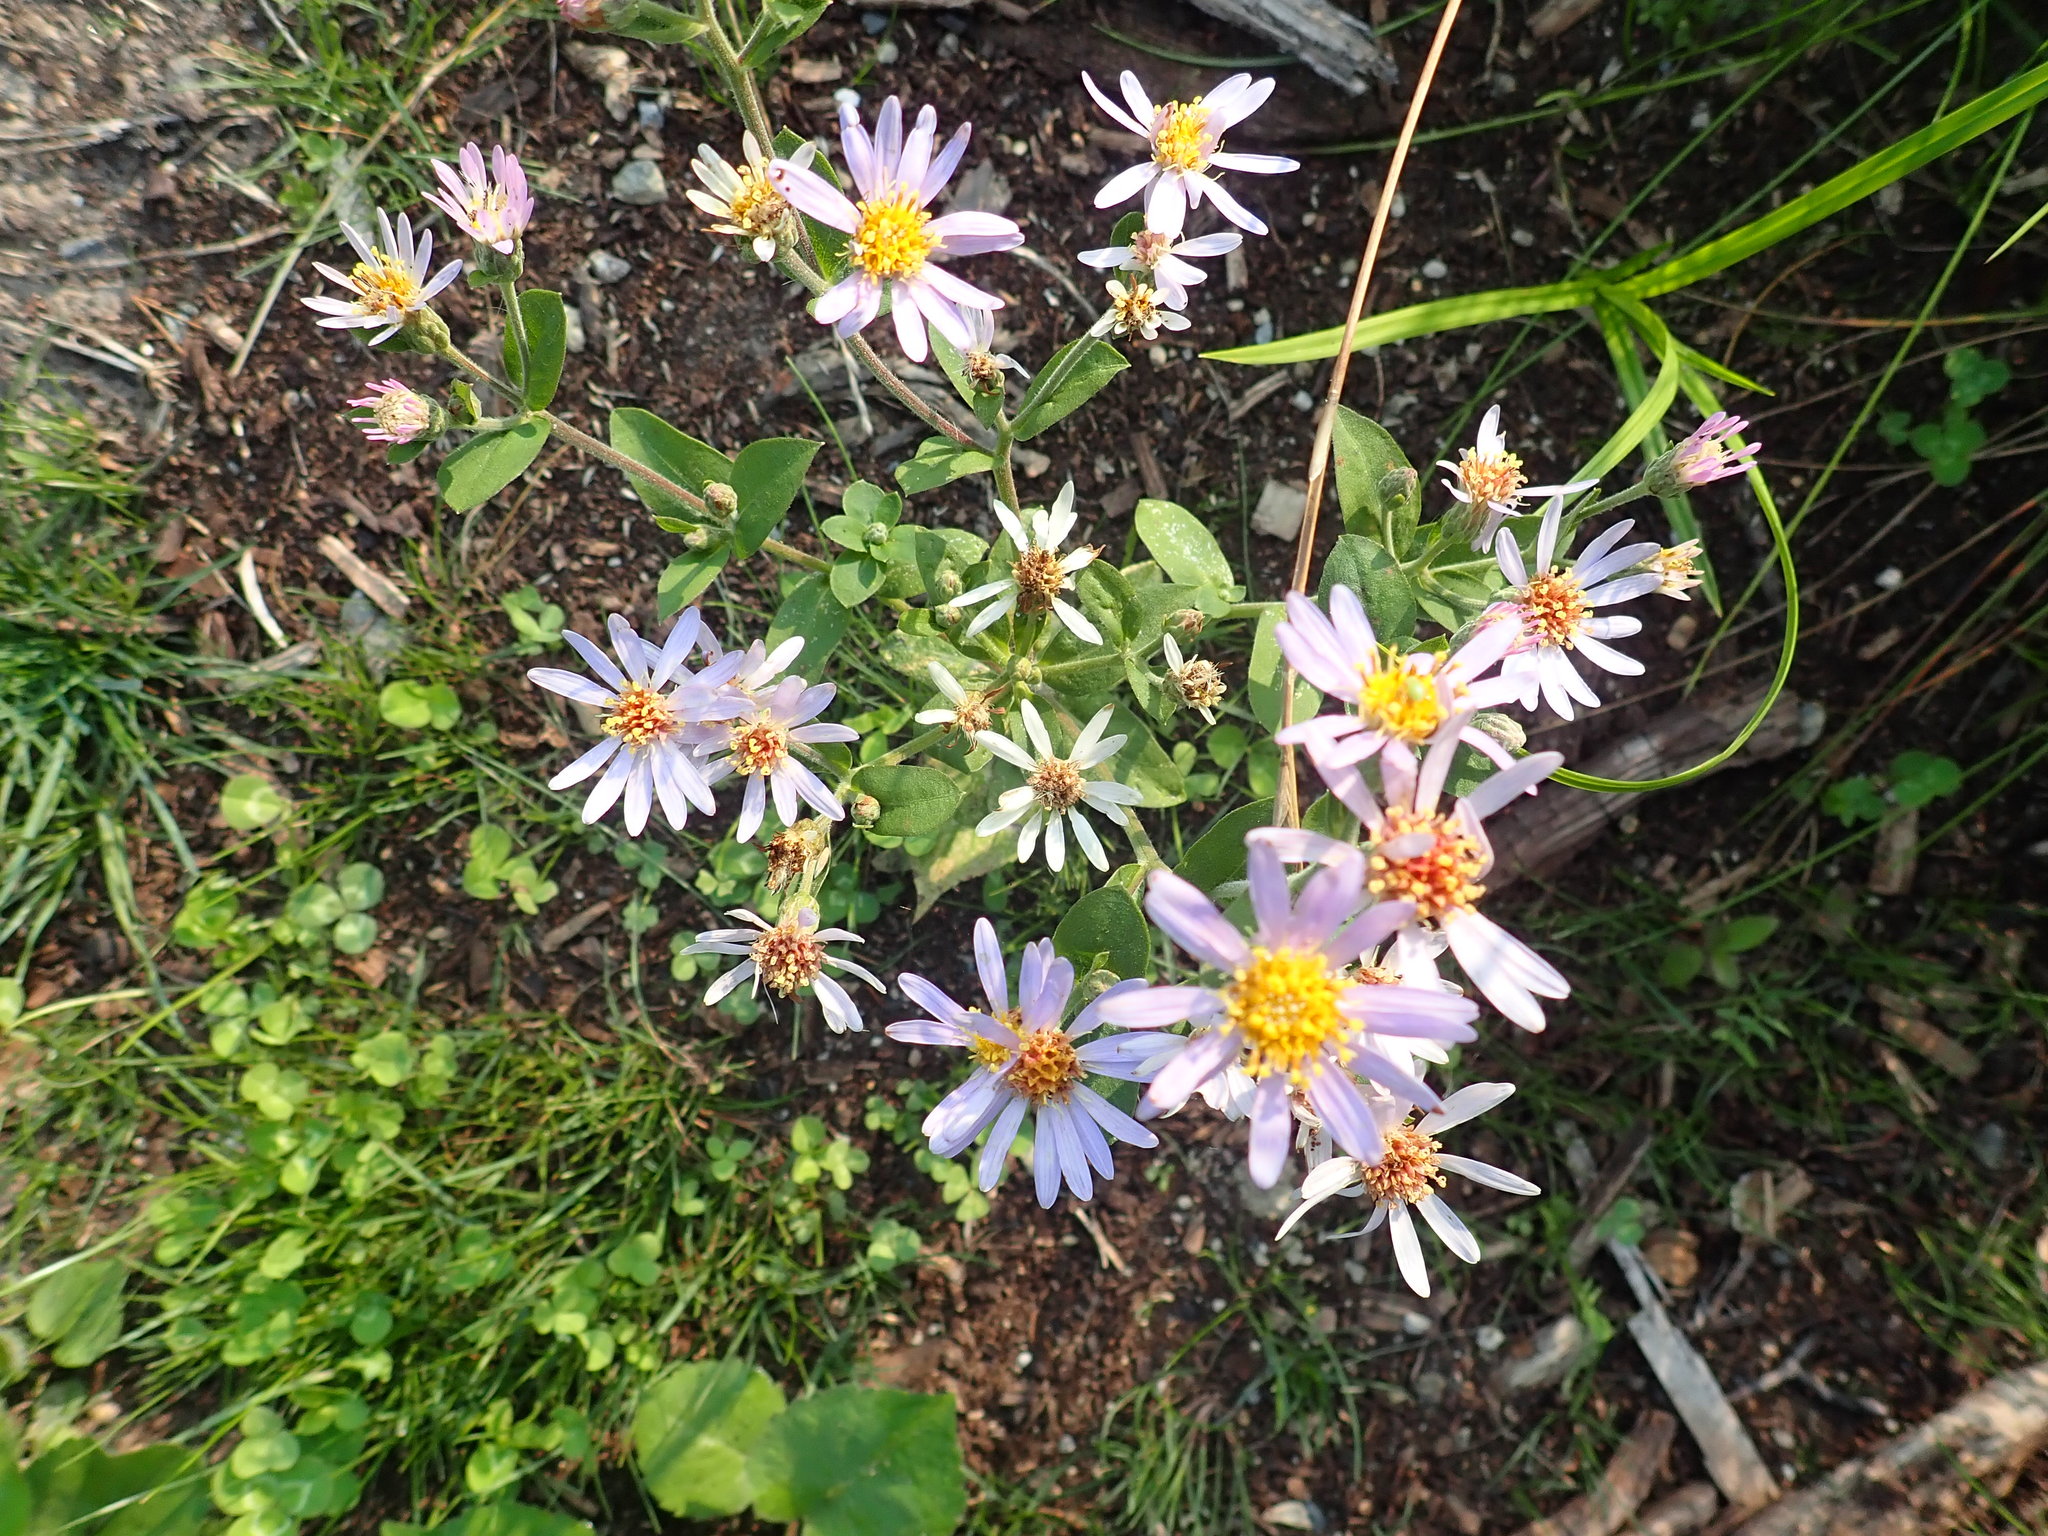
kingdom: Plantae
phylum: Tracheophyta
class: Magnoliopsida
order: Asterales
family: Asteraceae
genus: Eurybia
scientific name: Eurybia macrophylla
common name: Big-leaved aster
